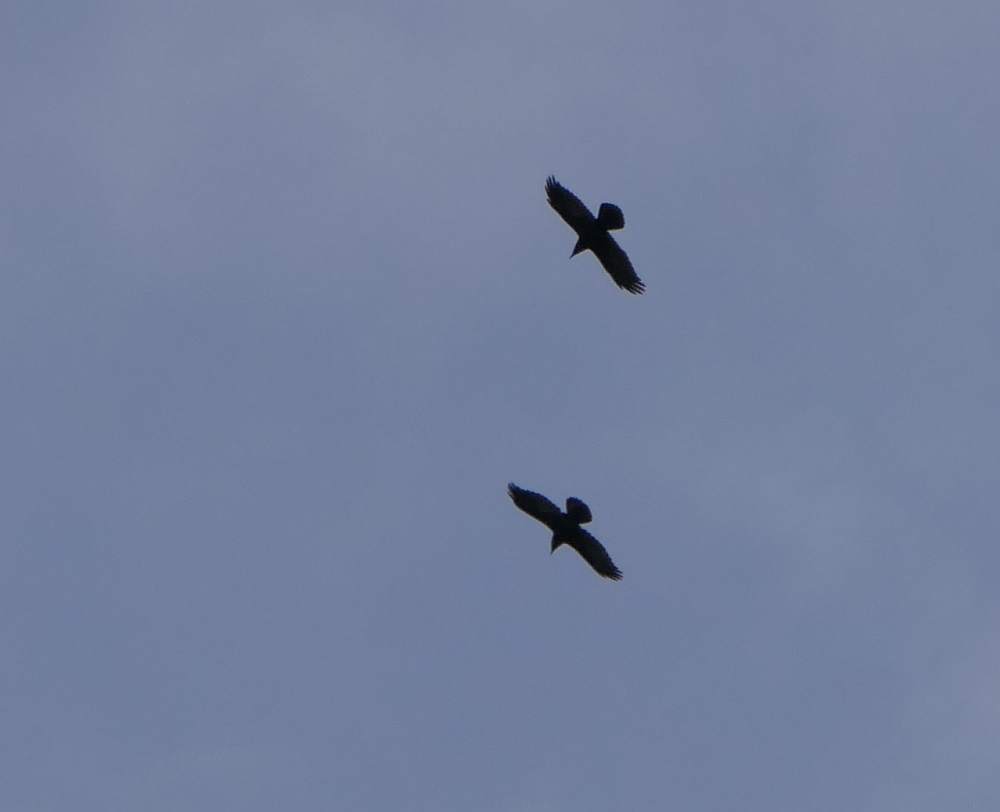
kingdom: Animalia
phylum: Chordata
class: Aves
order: Passeriformes
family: Corvidae
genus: Corvus
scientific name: Corvus corax
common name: Common raven
